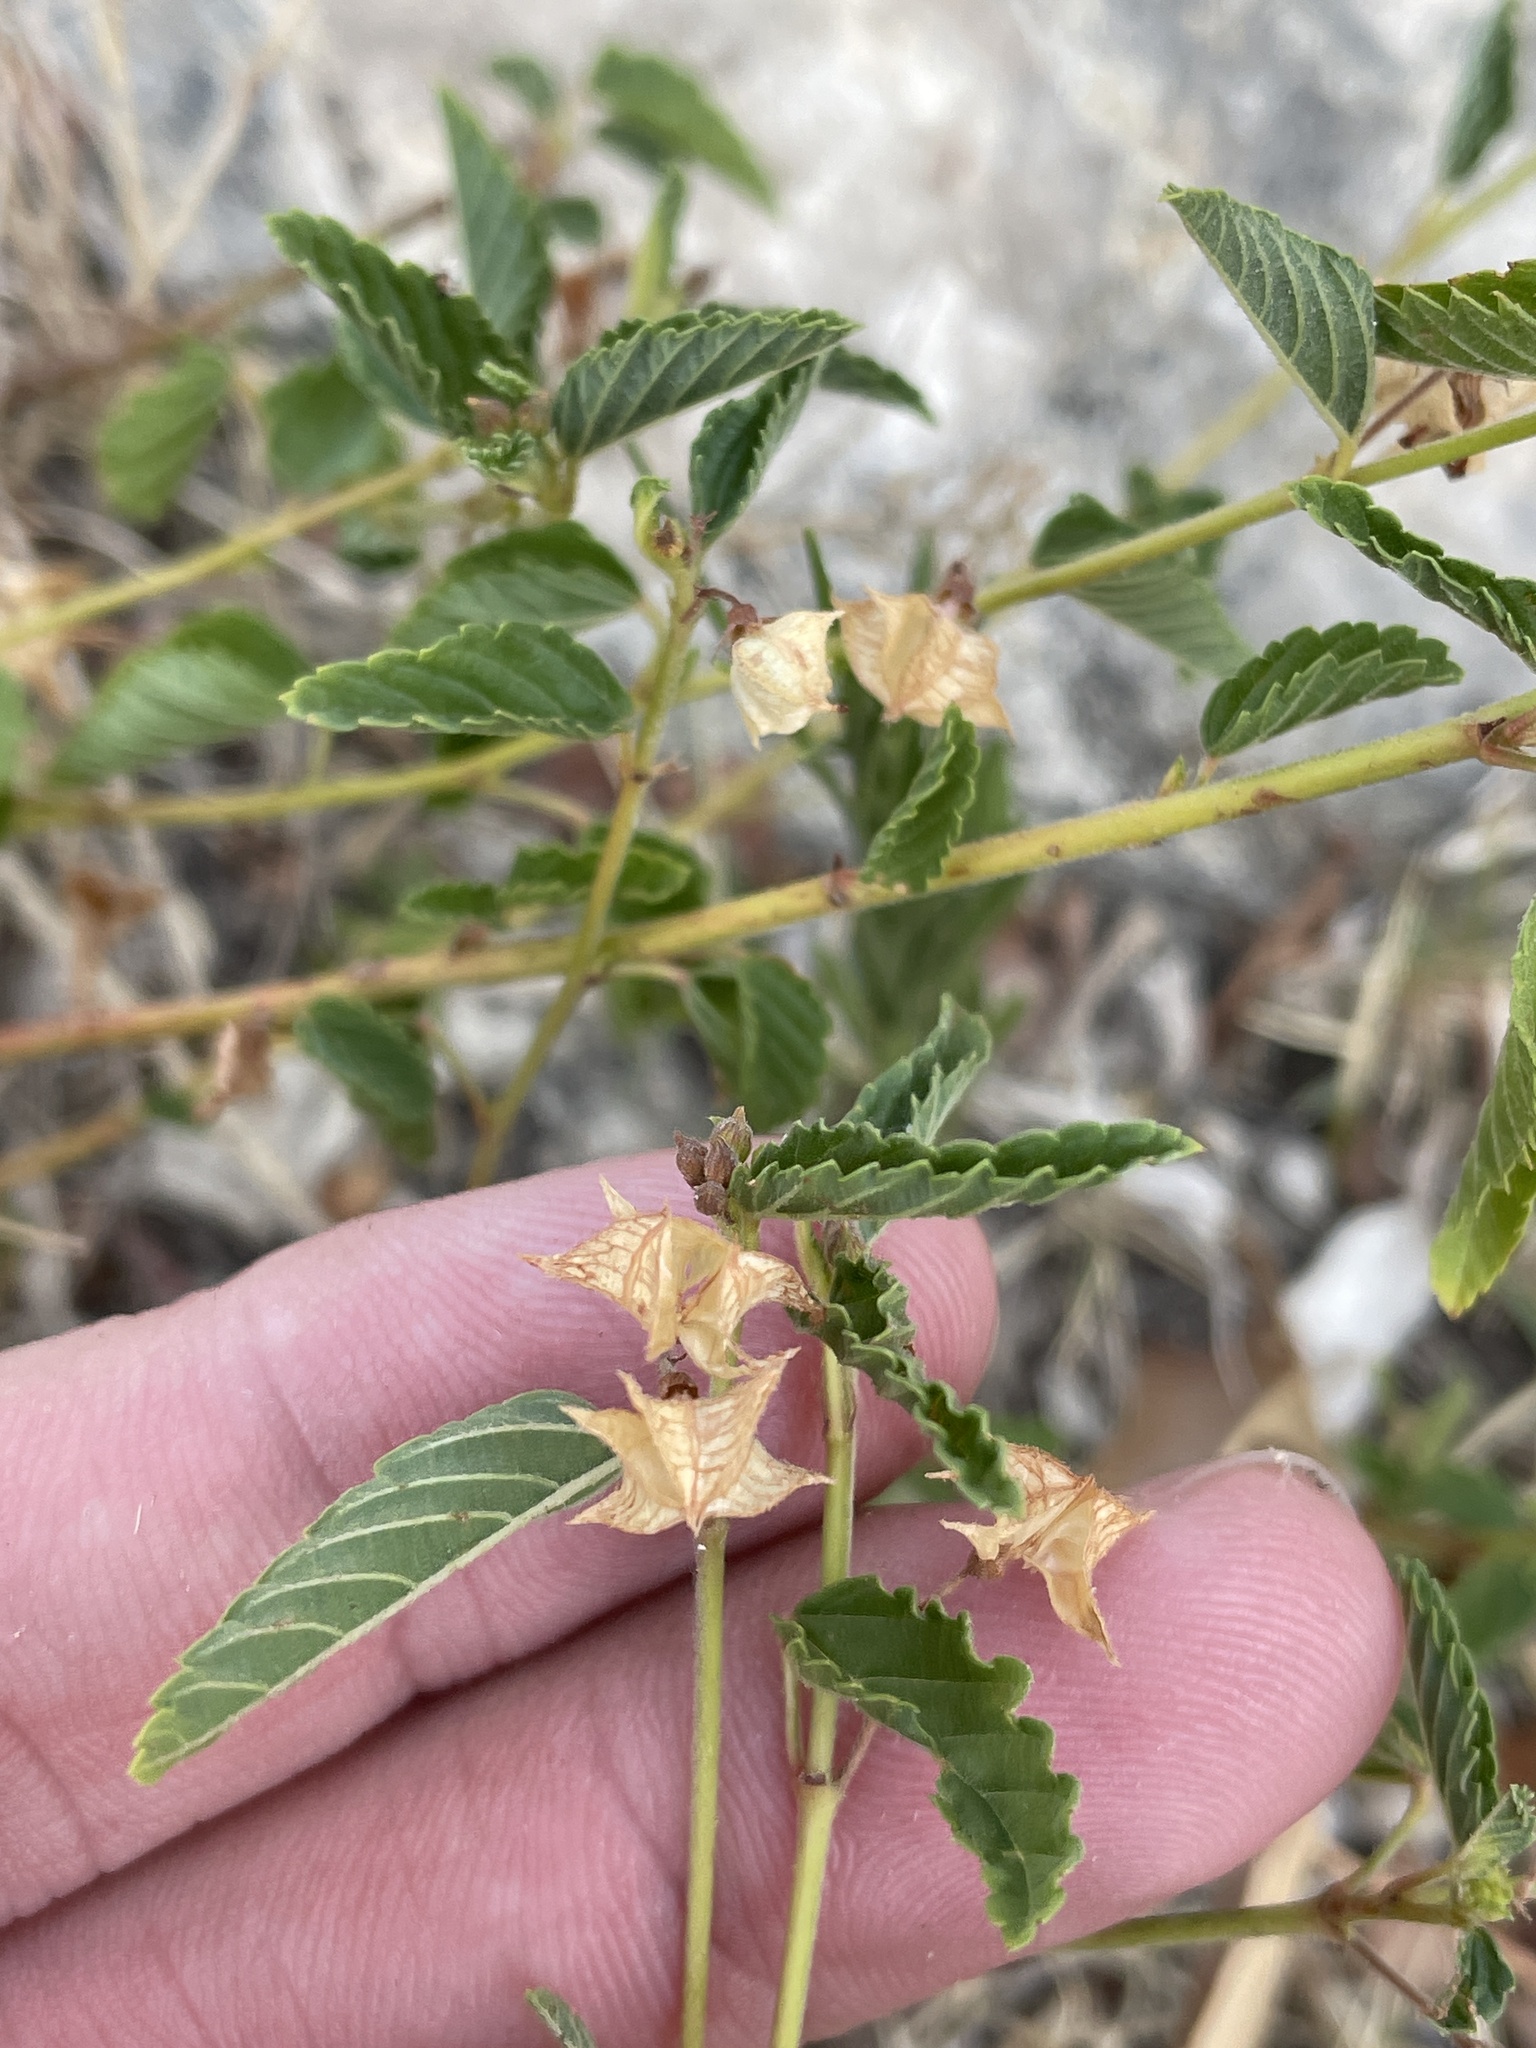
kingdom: Plantae
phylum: Tracheophyta
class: Magnoliopsida
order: Malvales
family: Malvaceae
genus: Melochia
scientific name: Melochia pyramidata
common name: Pyramidflower
